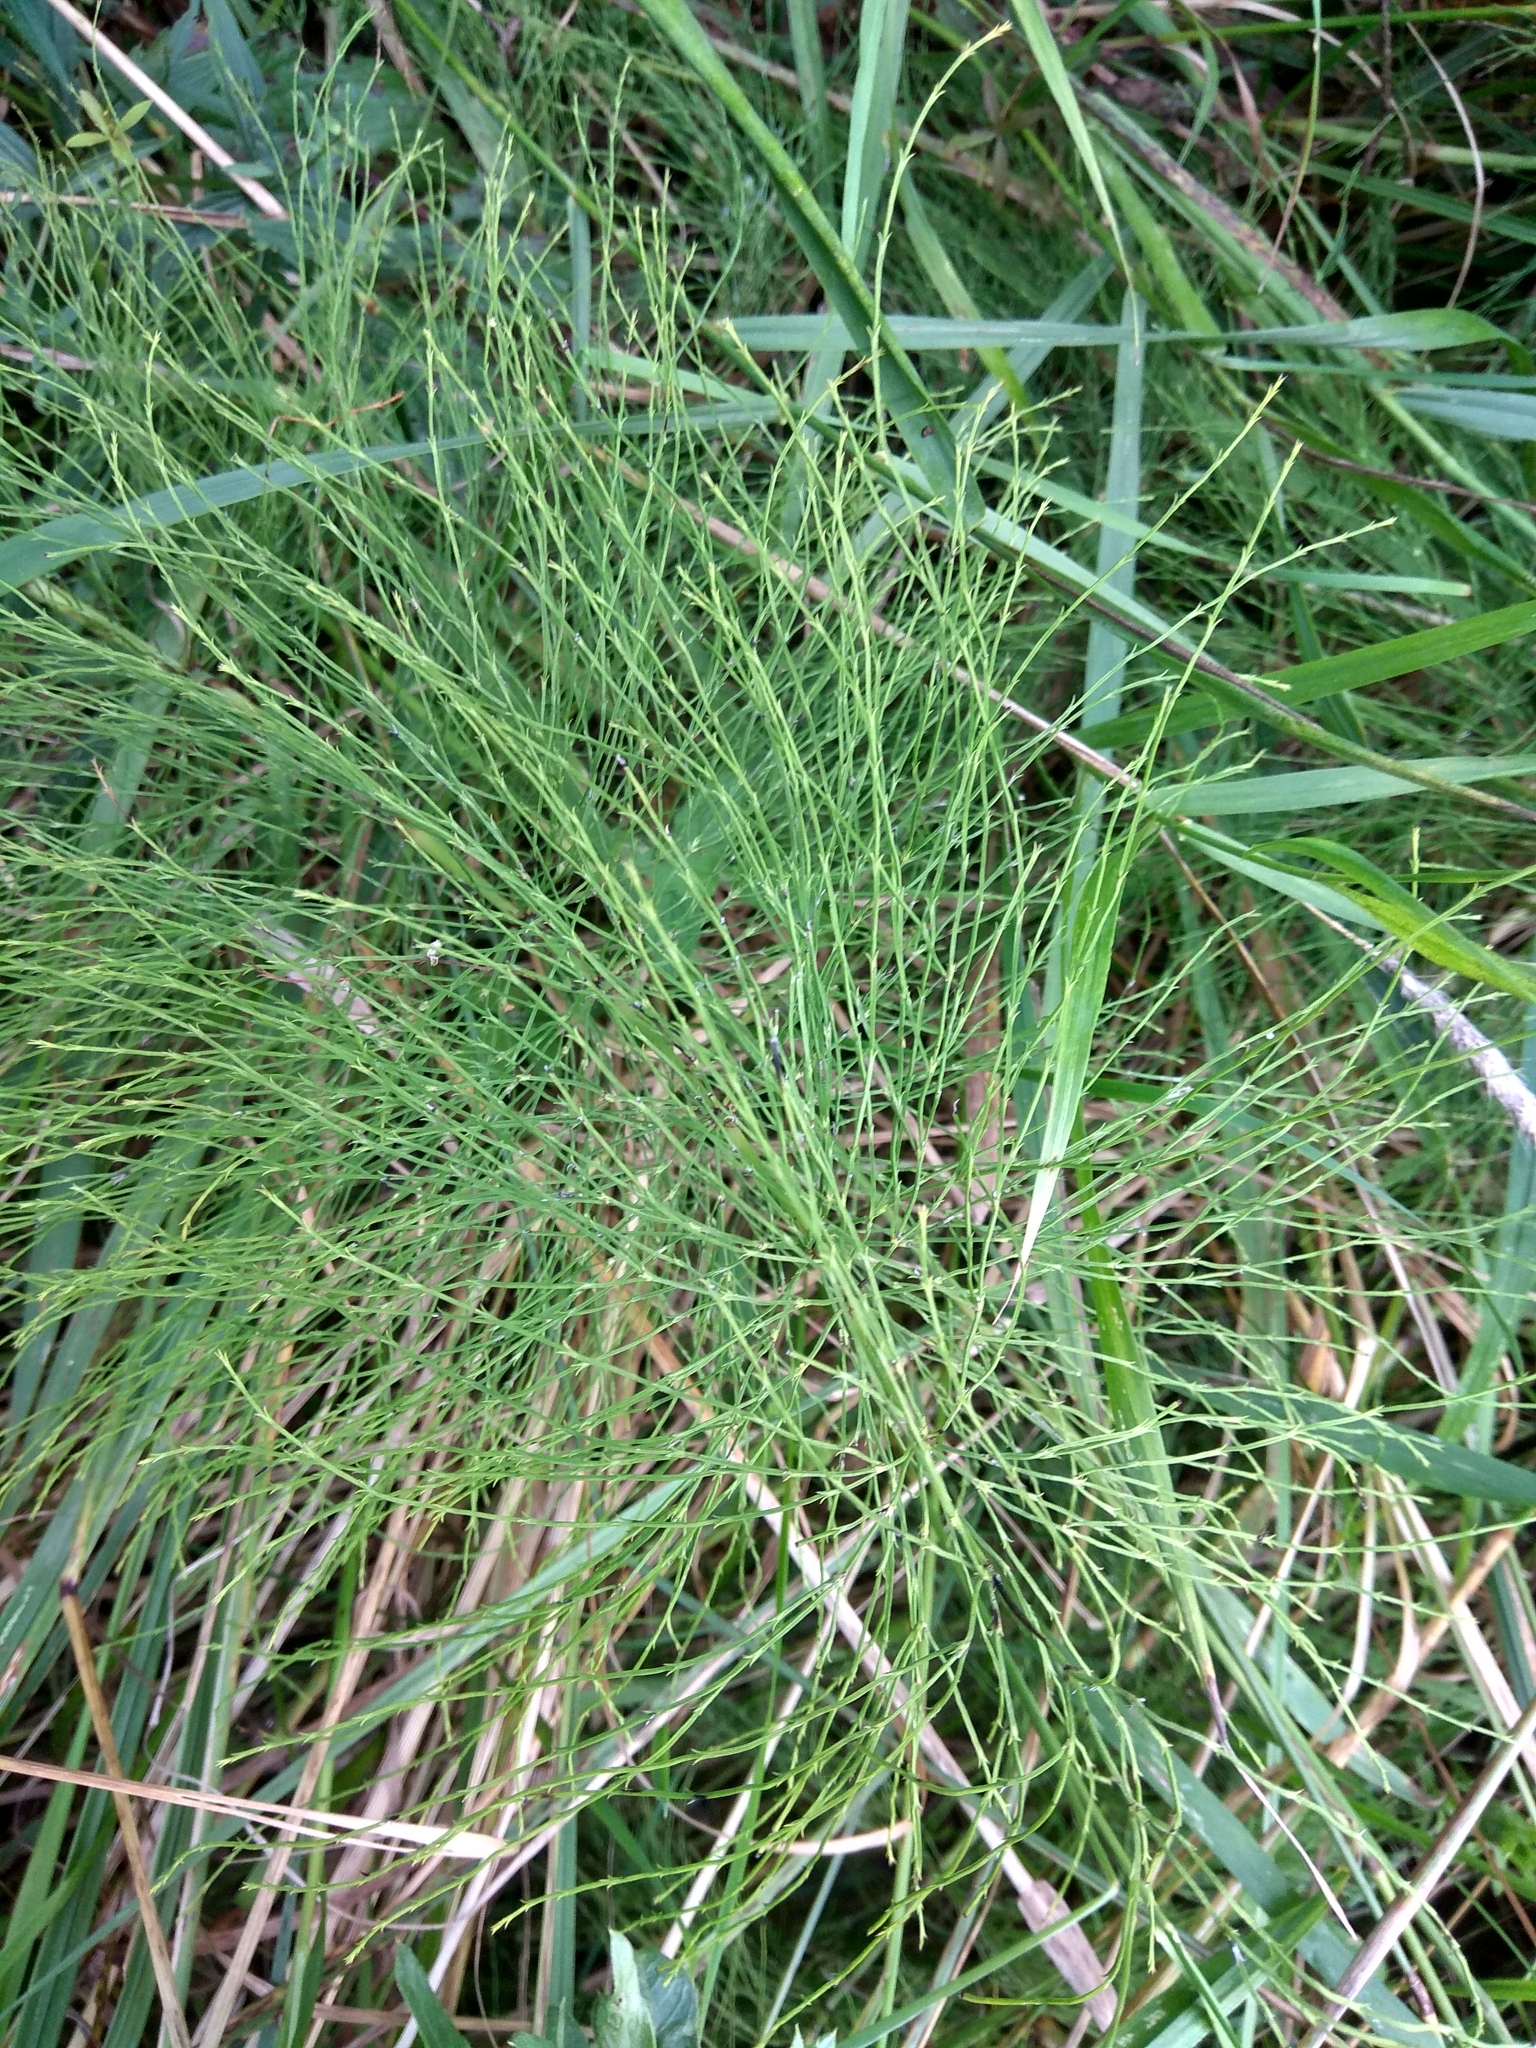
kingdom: Plantae
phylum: Tracheophyta
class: Polypodiopsida
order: Equisetales
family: Equisetaceae
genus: Equisetum
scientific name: Equisetum sylvaticum
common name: Wood horsetail
